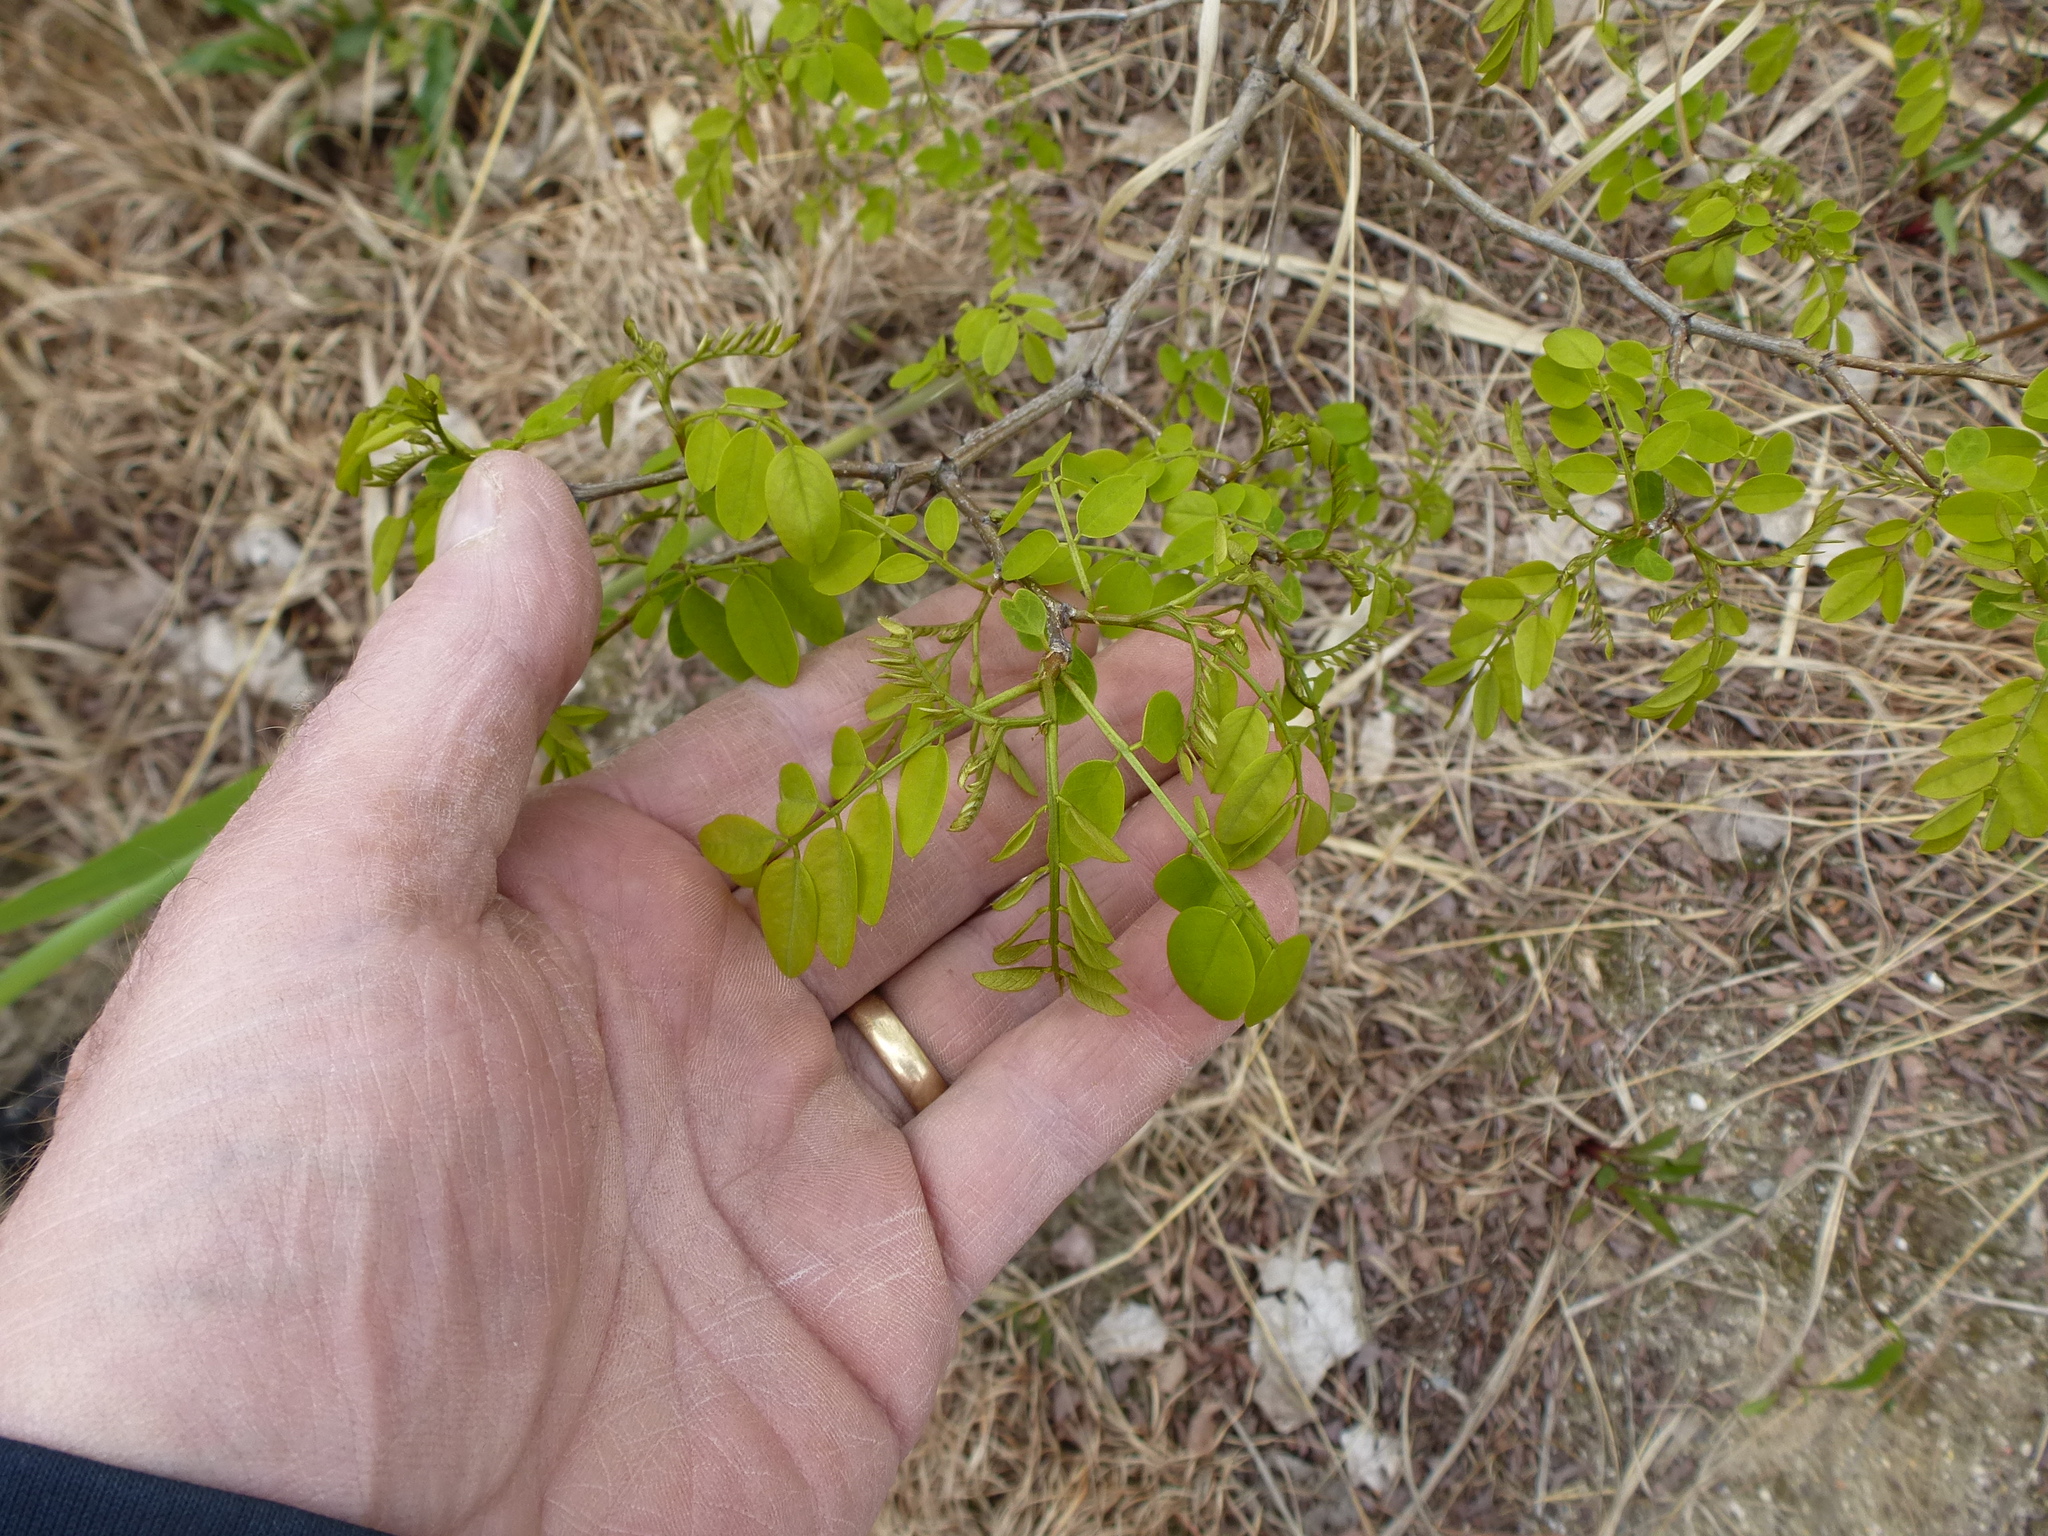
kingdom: Plantae
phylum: Tracheophyta
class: Magnoliopsida
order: Fabales
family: Fabaceae
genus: Robinia
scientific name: Robinia pseudoacacia
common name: Black locust
